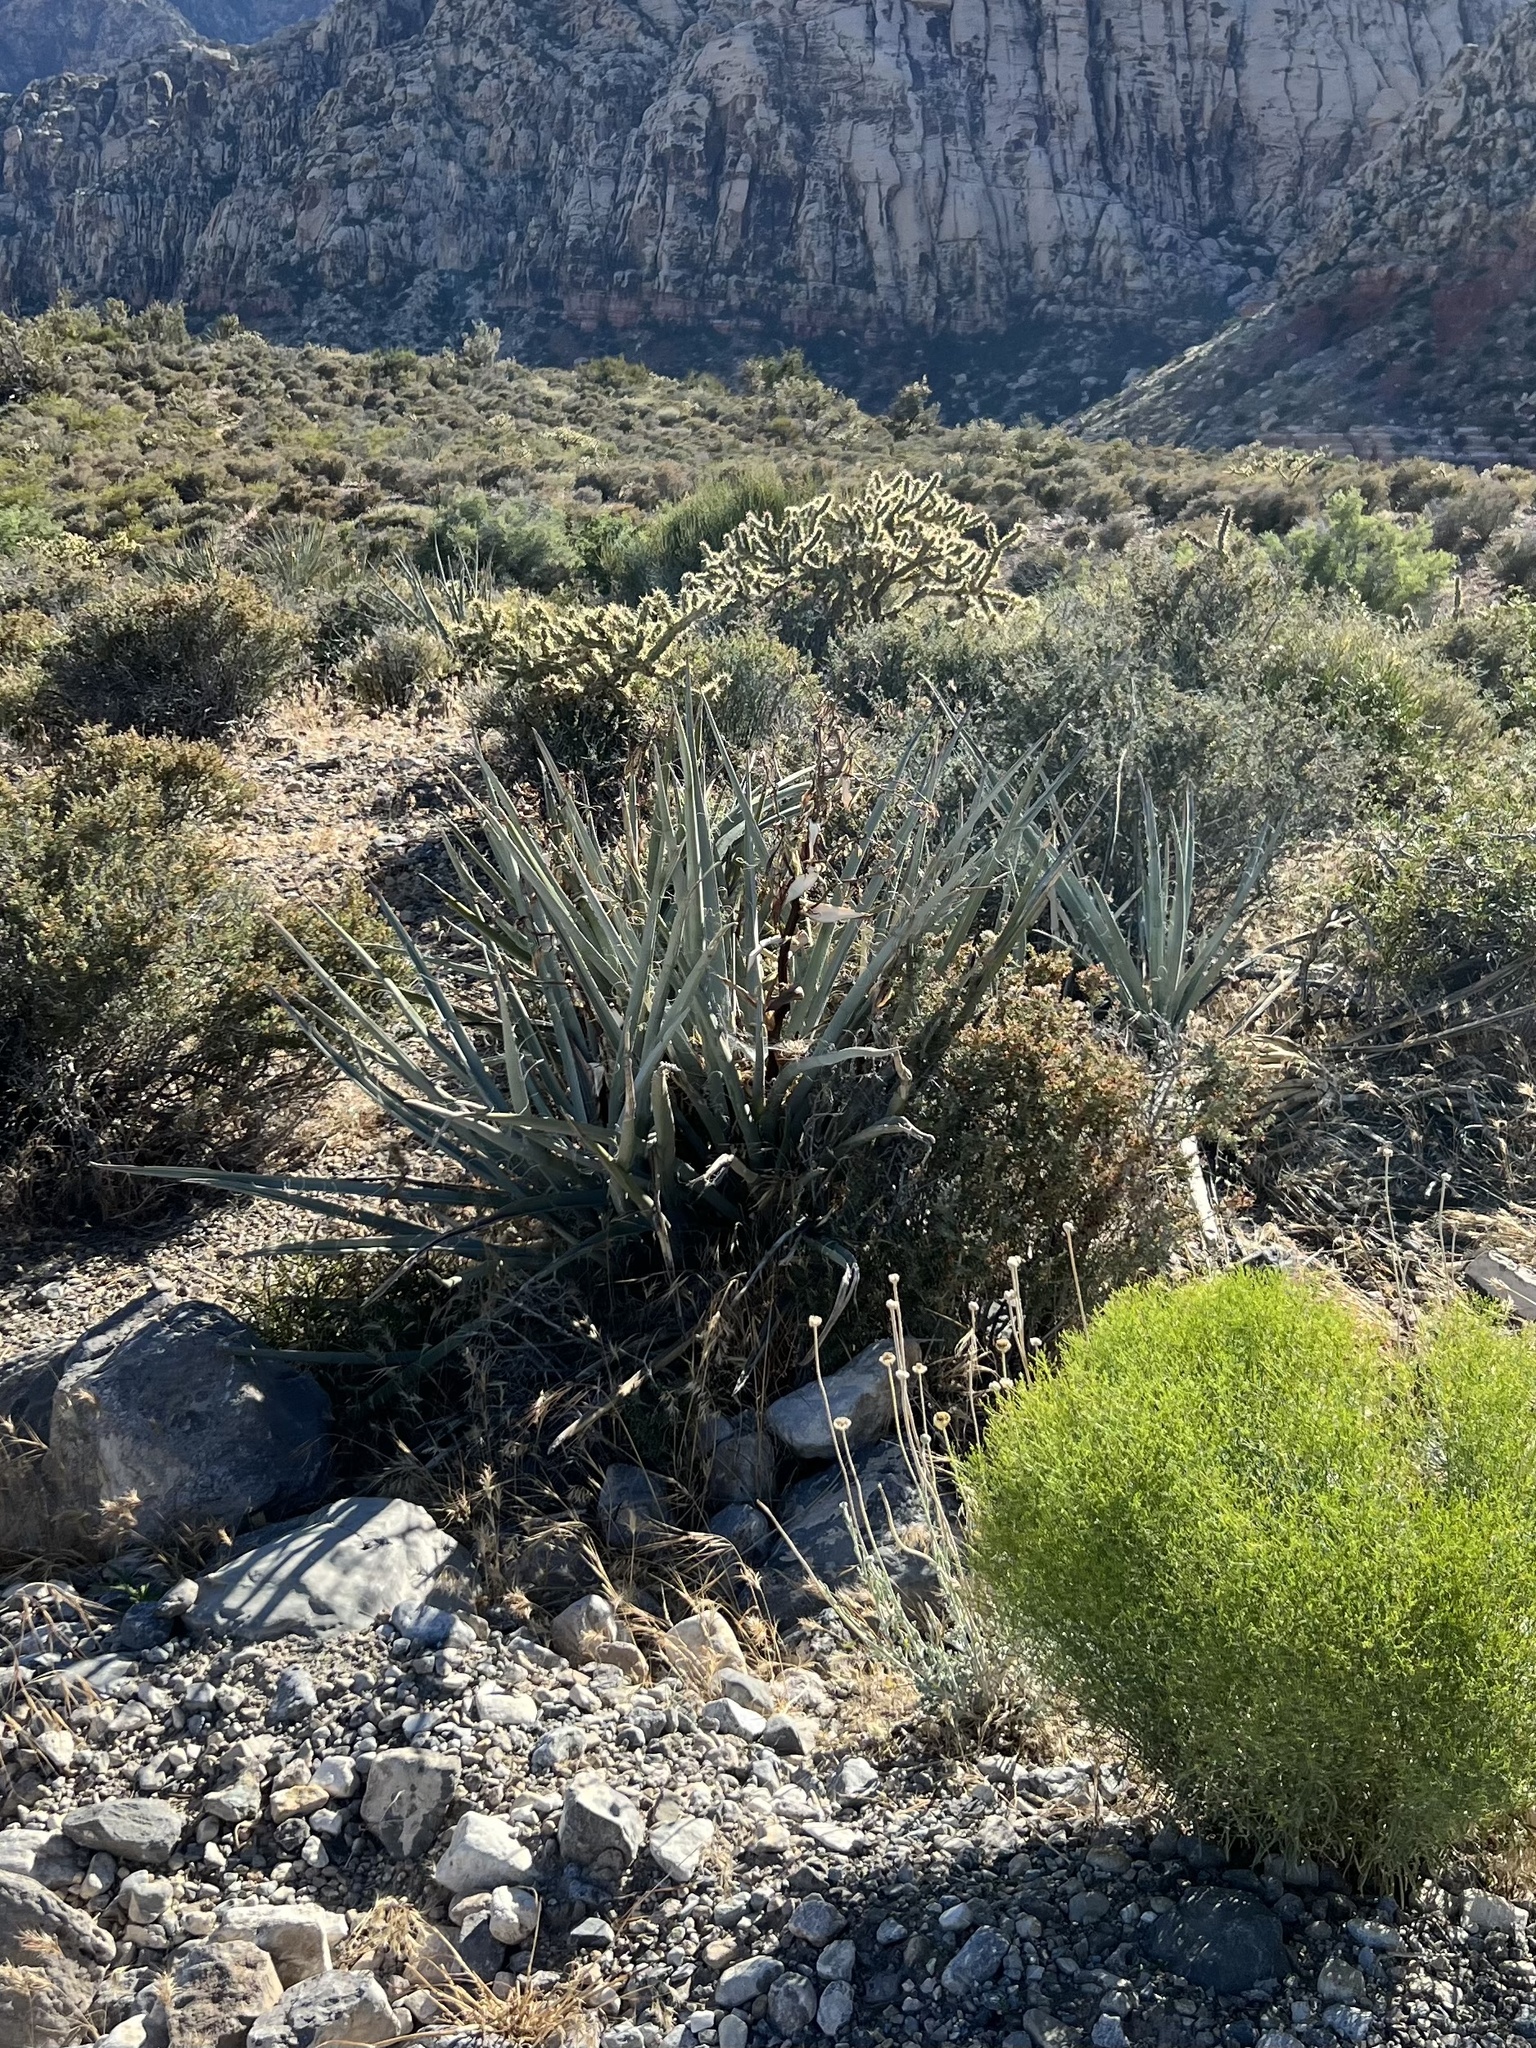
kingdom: Plantae
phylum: Tracheophyta
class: Liliopsida
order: Asparagales
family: Asparagaceae
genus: Yucca
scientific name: Yucca baccata
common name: Banana yucca
